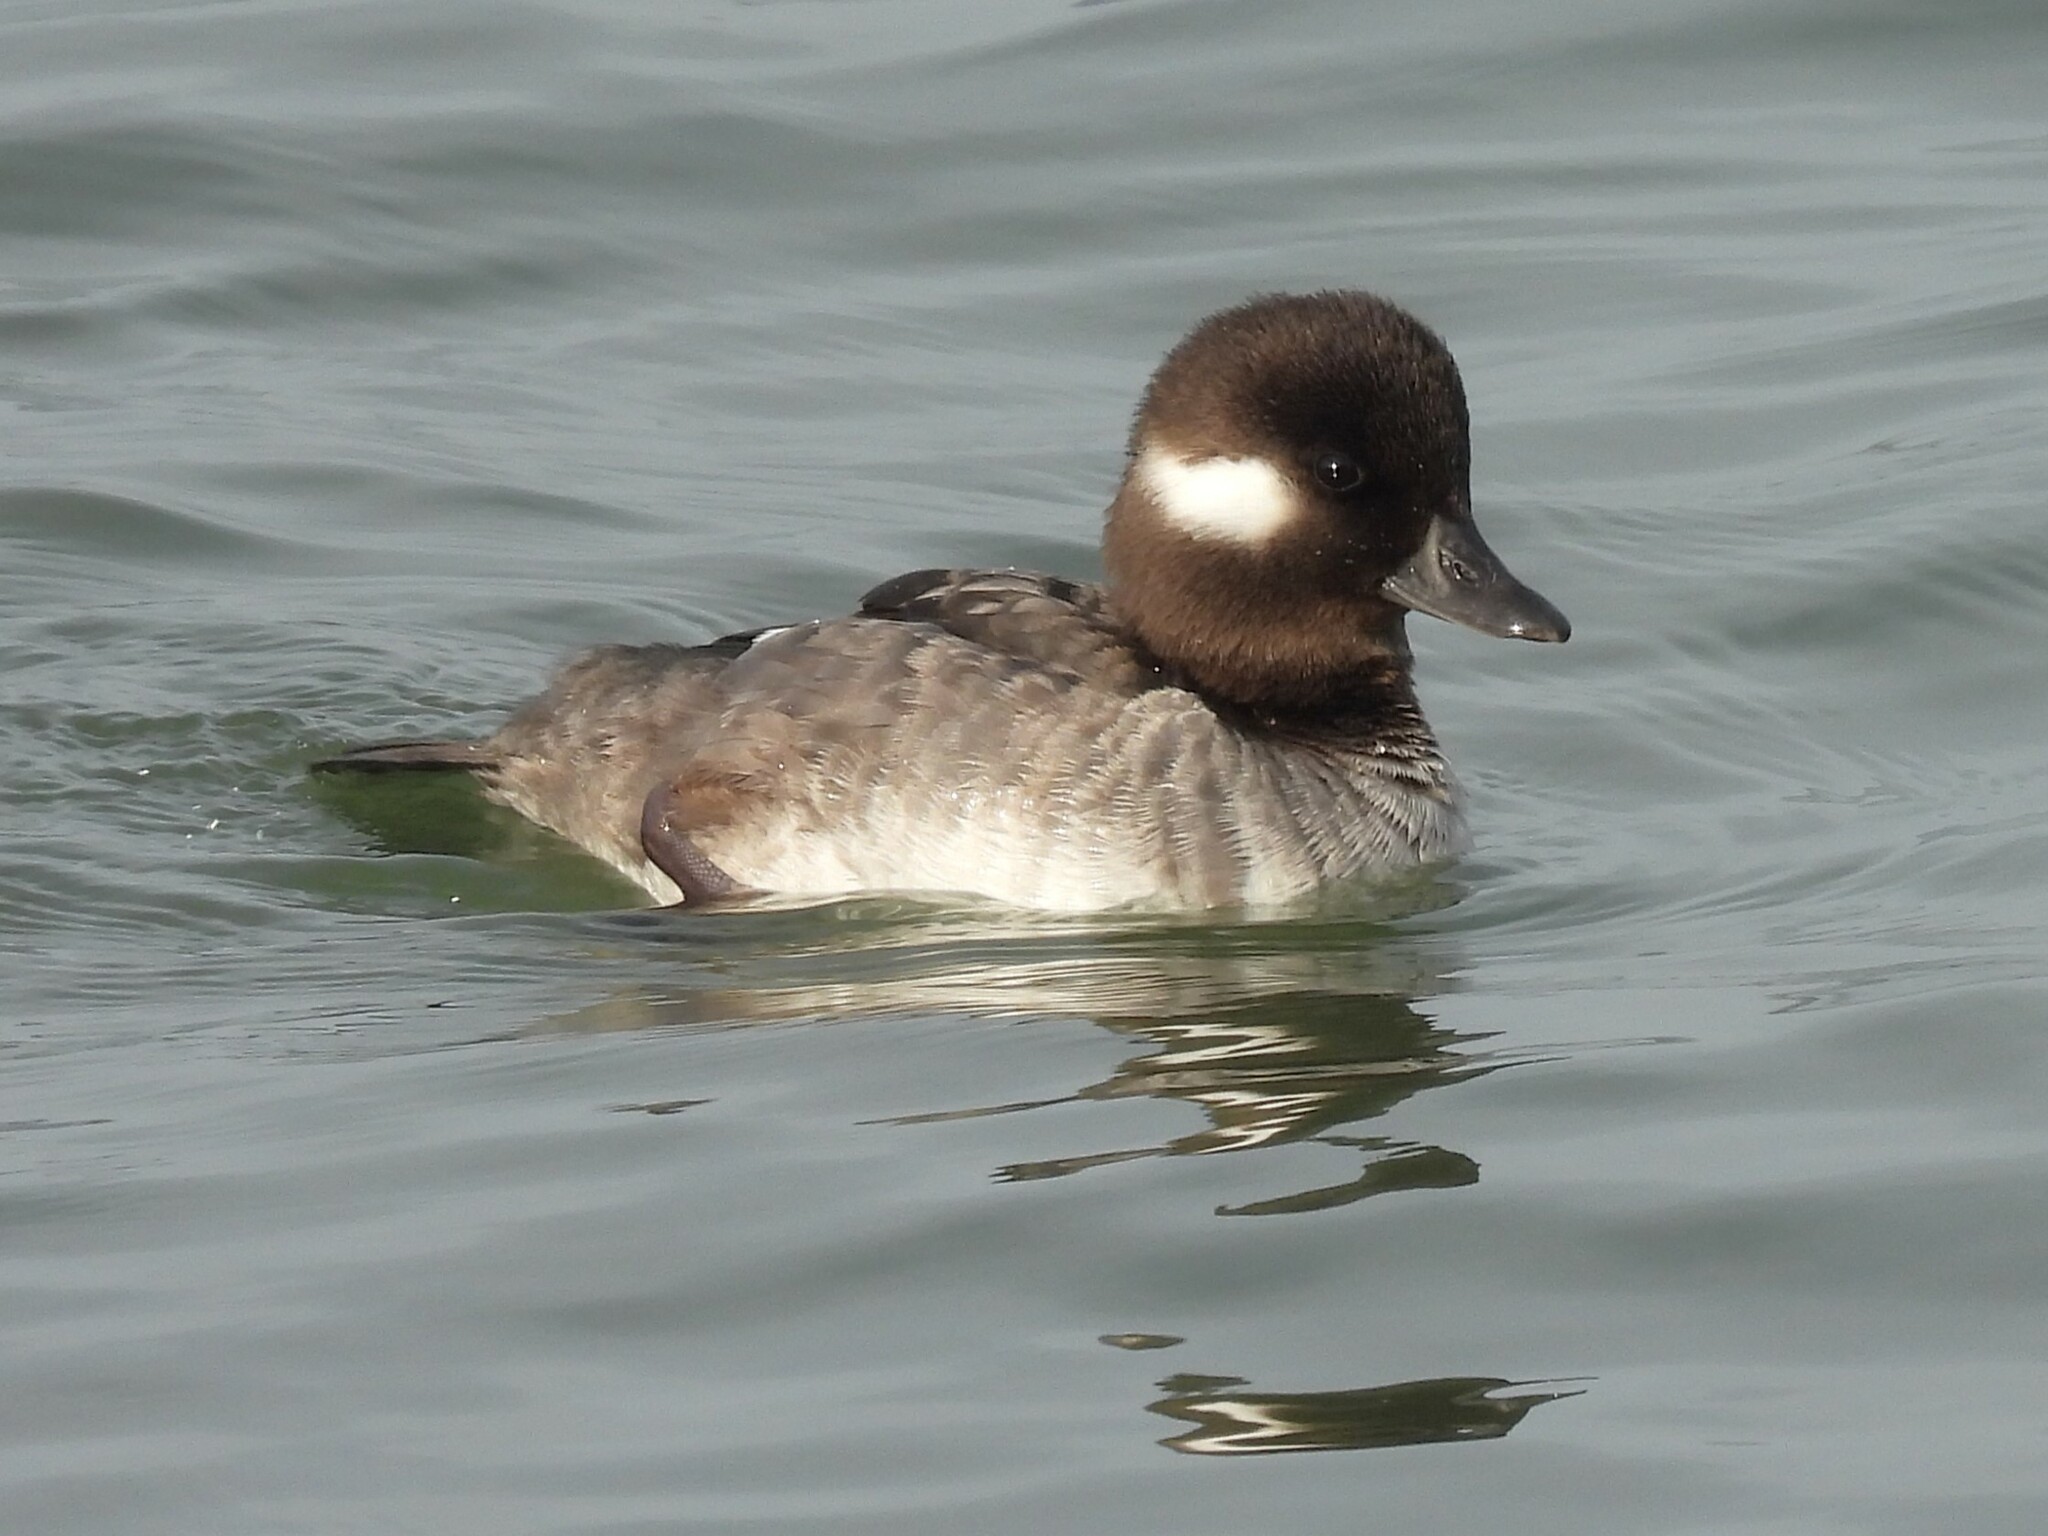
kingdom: Animalia
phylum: Chordata
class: Aves
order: Anseriformes
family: Anatidae
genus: Bucephala
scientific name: Bucephala albeola
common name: Bufflehead
